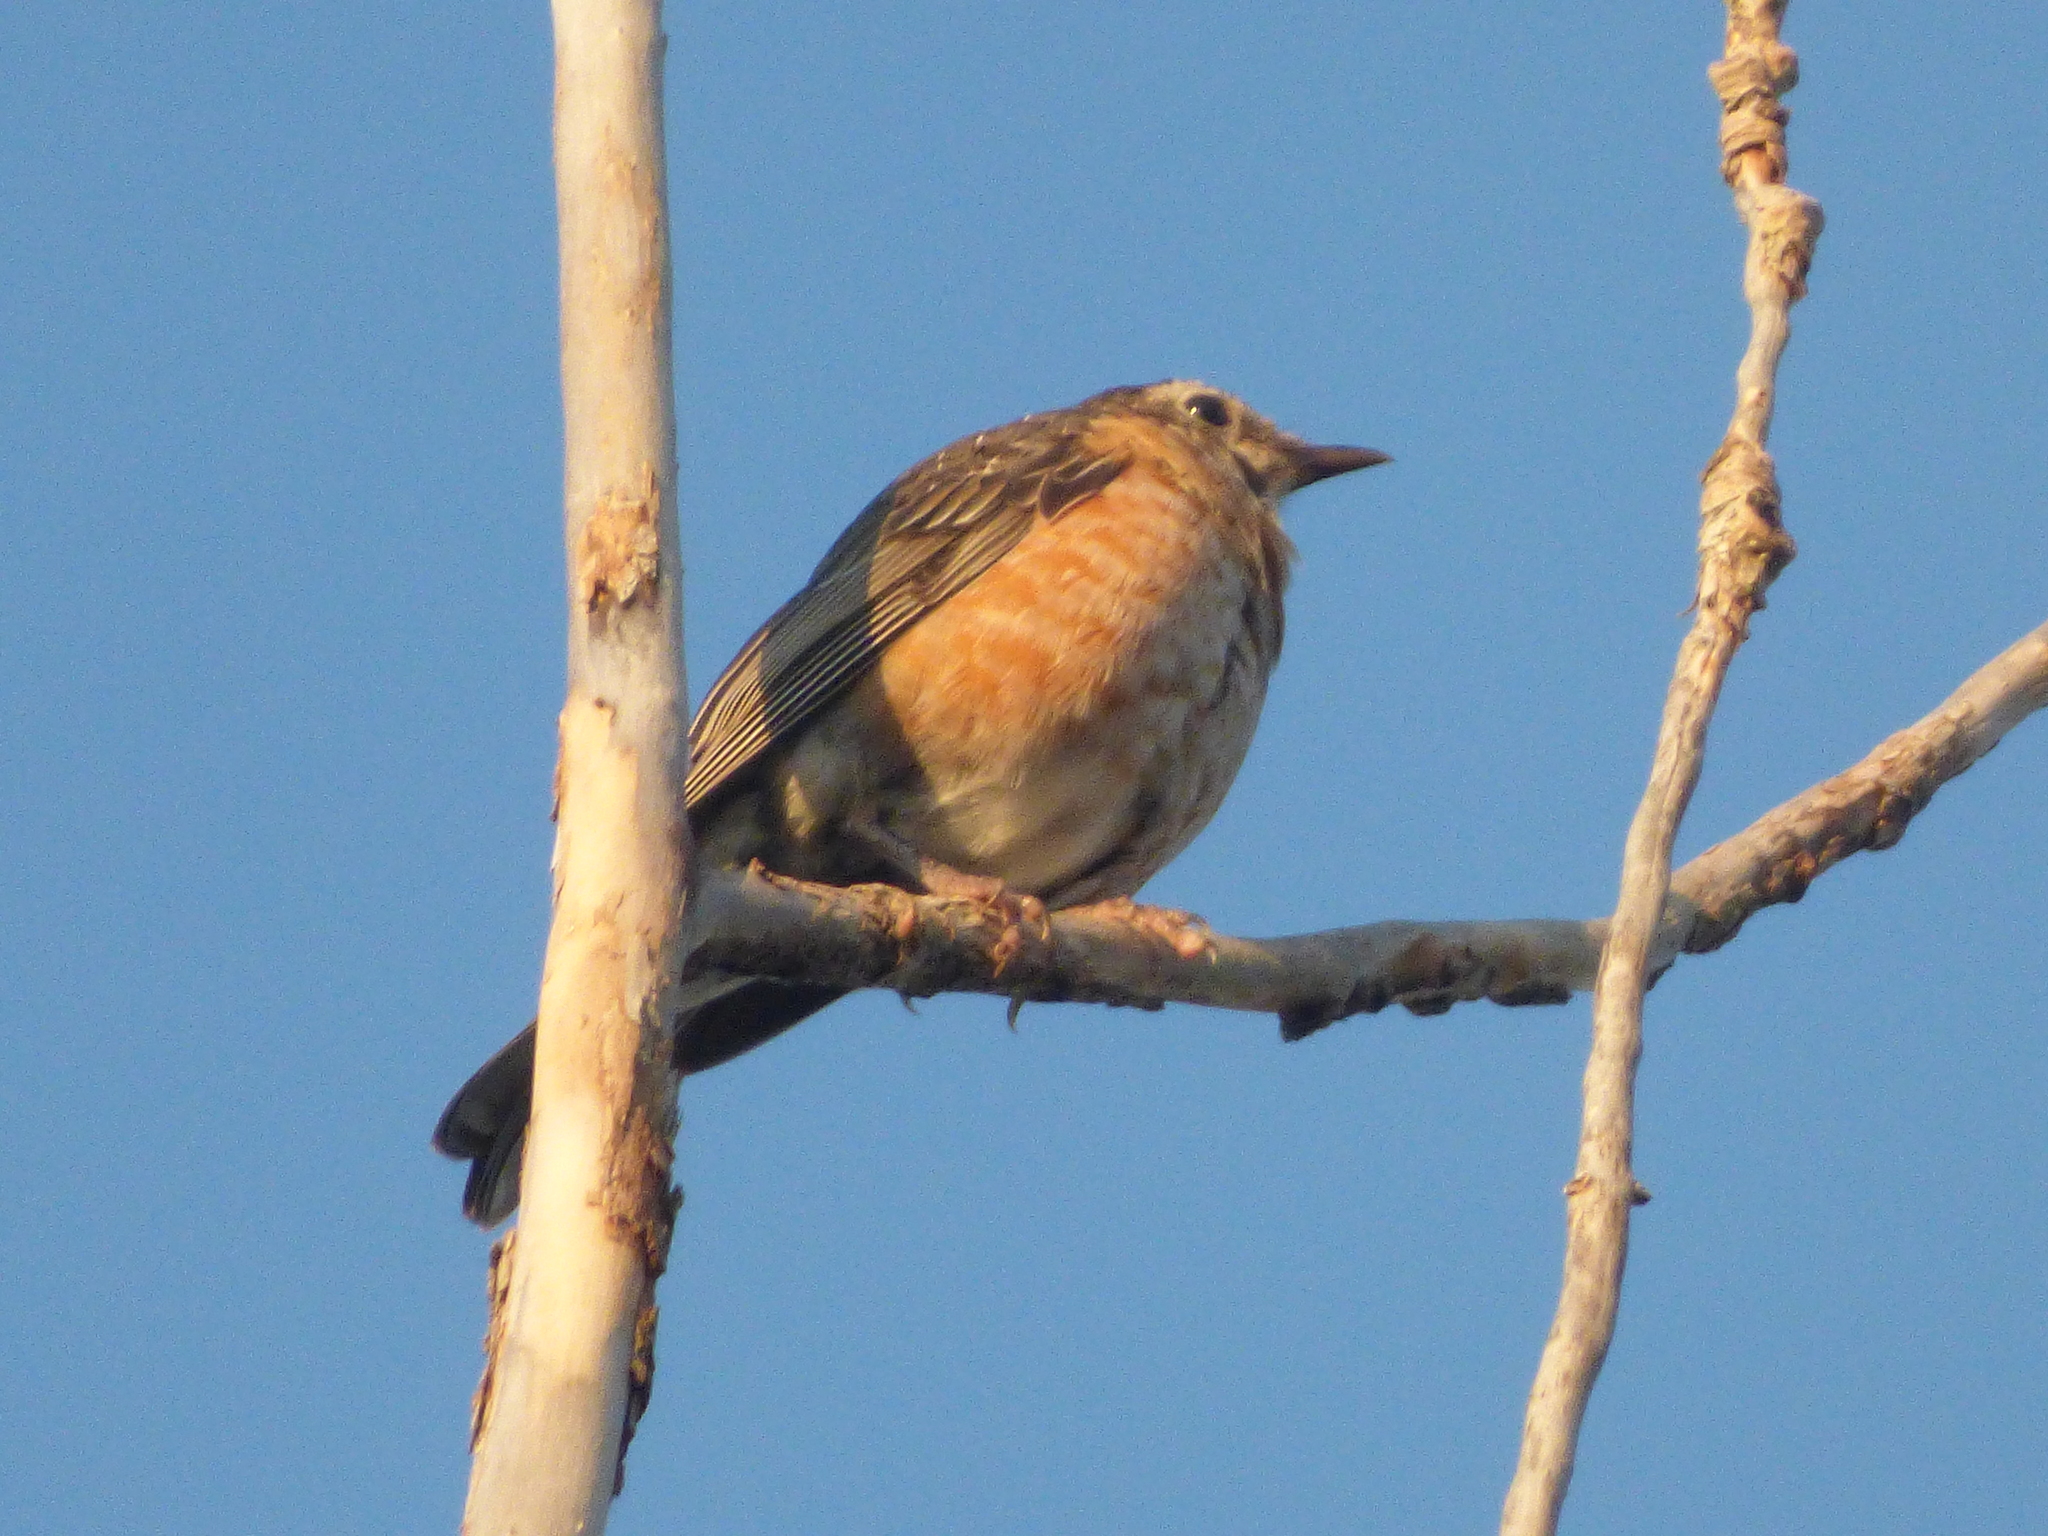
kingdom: Animalia
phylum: Chordata
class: Aves
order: Passeriformes
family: Turdidae
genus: Turdus
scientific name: Turdus migratorius
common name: American robin
